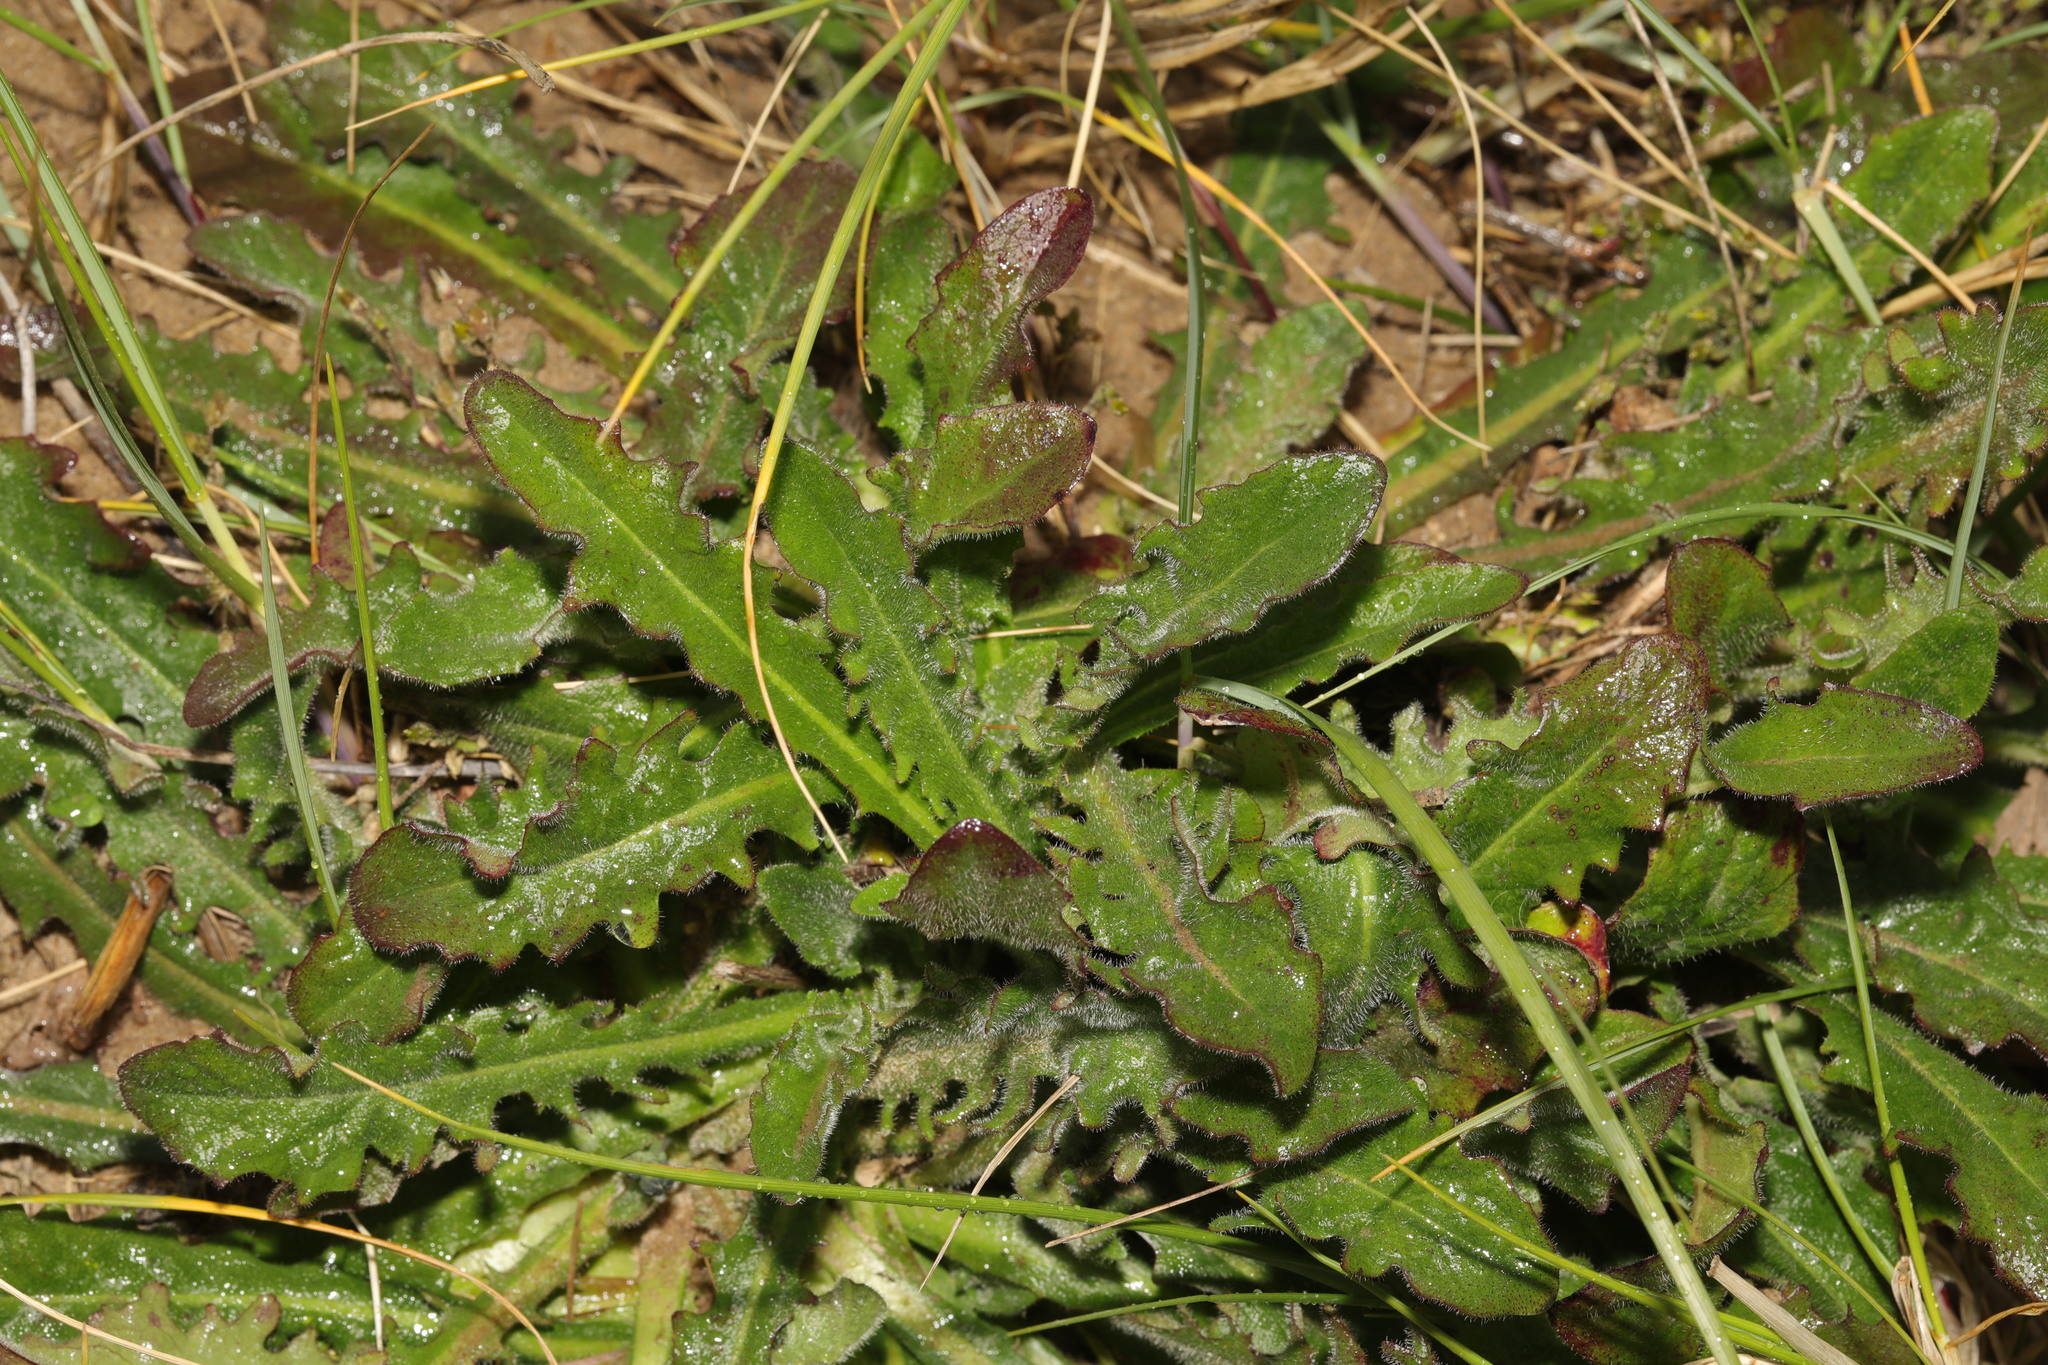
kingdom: Plantae
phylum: Tracheophyta
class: Magnoliopsida
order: Asterales
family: Asteraceae
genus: Hypochaeris
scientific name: Hypochaeris radicata
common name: Flatweed
